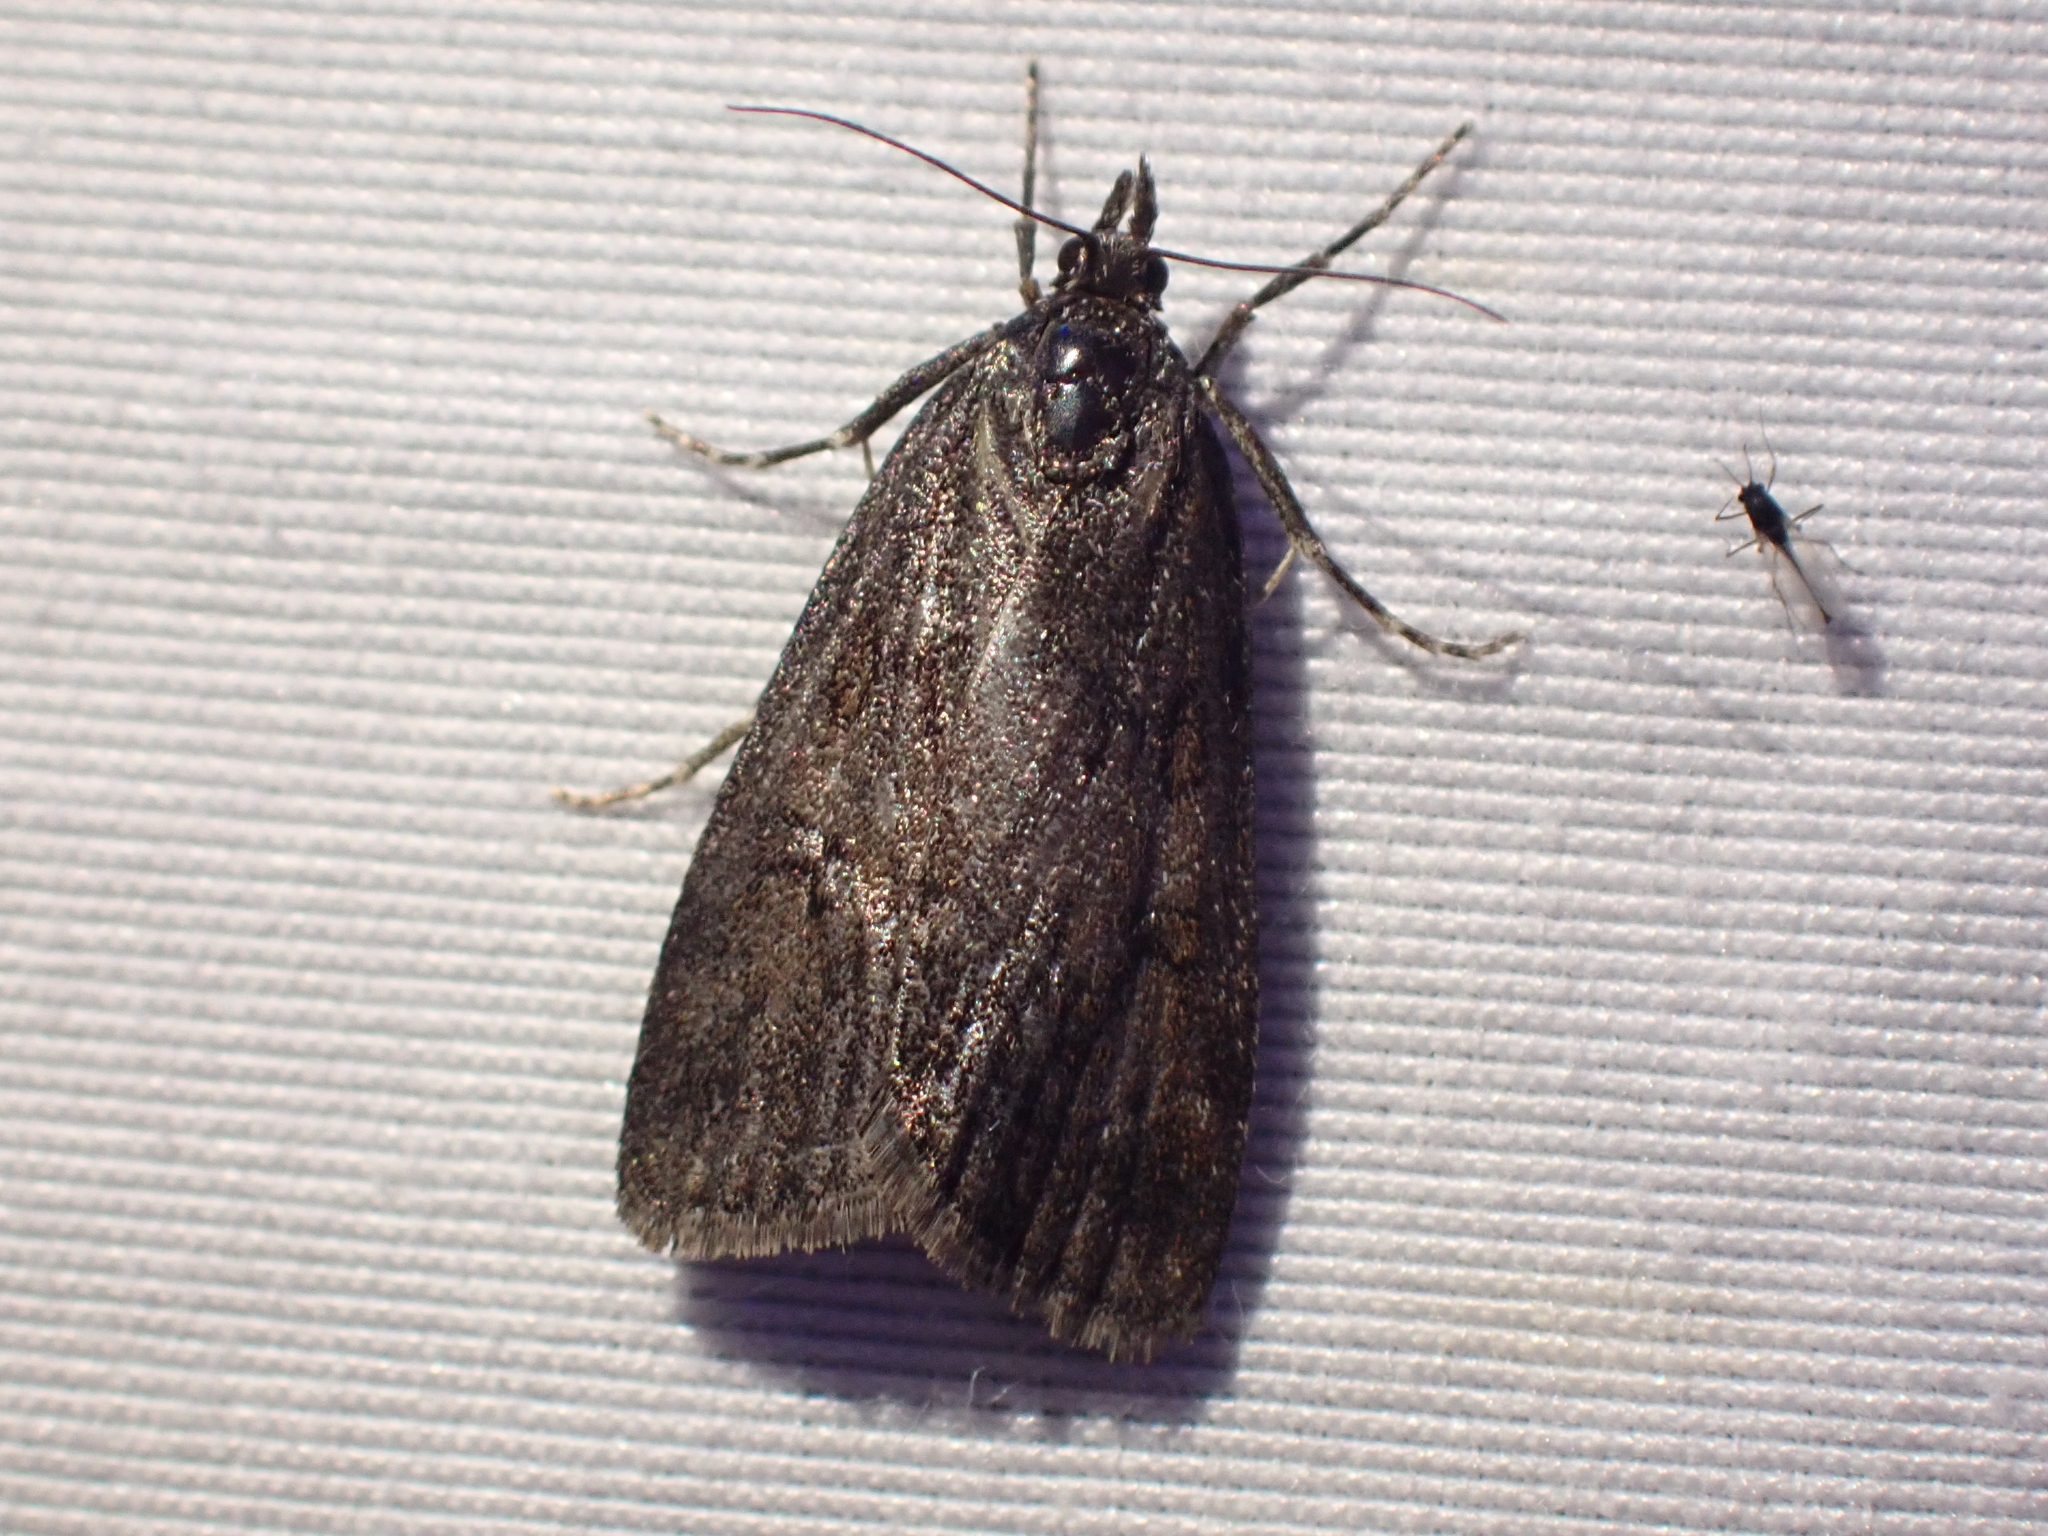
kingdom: Animalia
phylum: Arthropoda
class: Insecta
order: Lepidoptera
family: Crambidae
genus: Gesneria
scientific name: Gesneria centuriella
